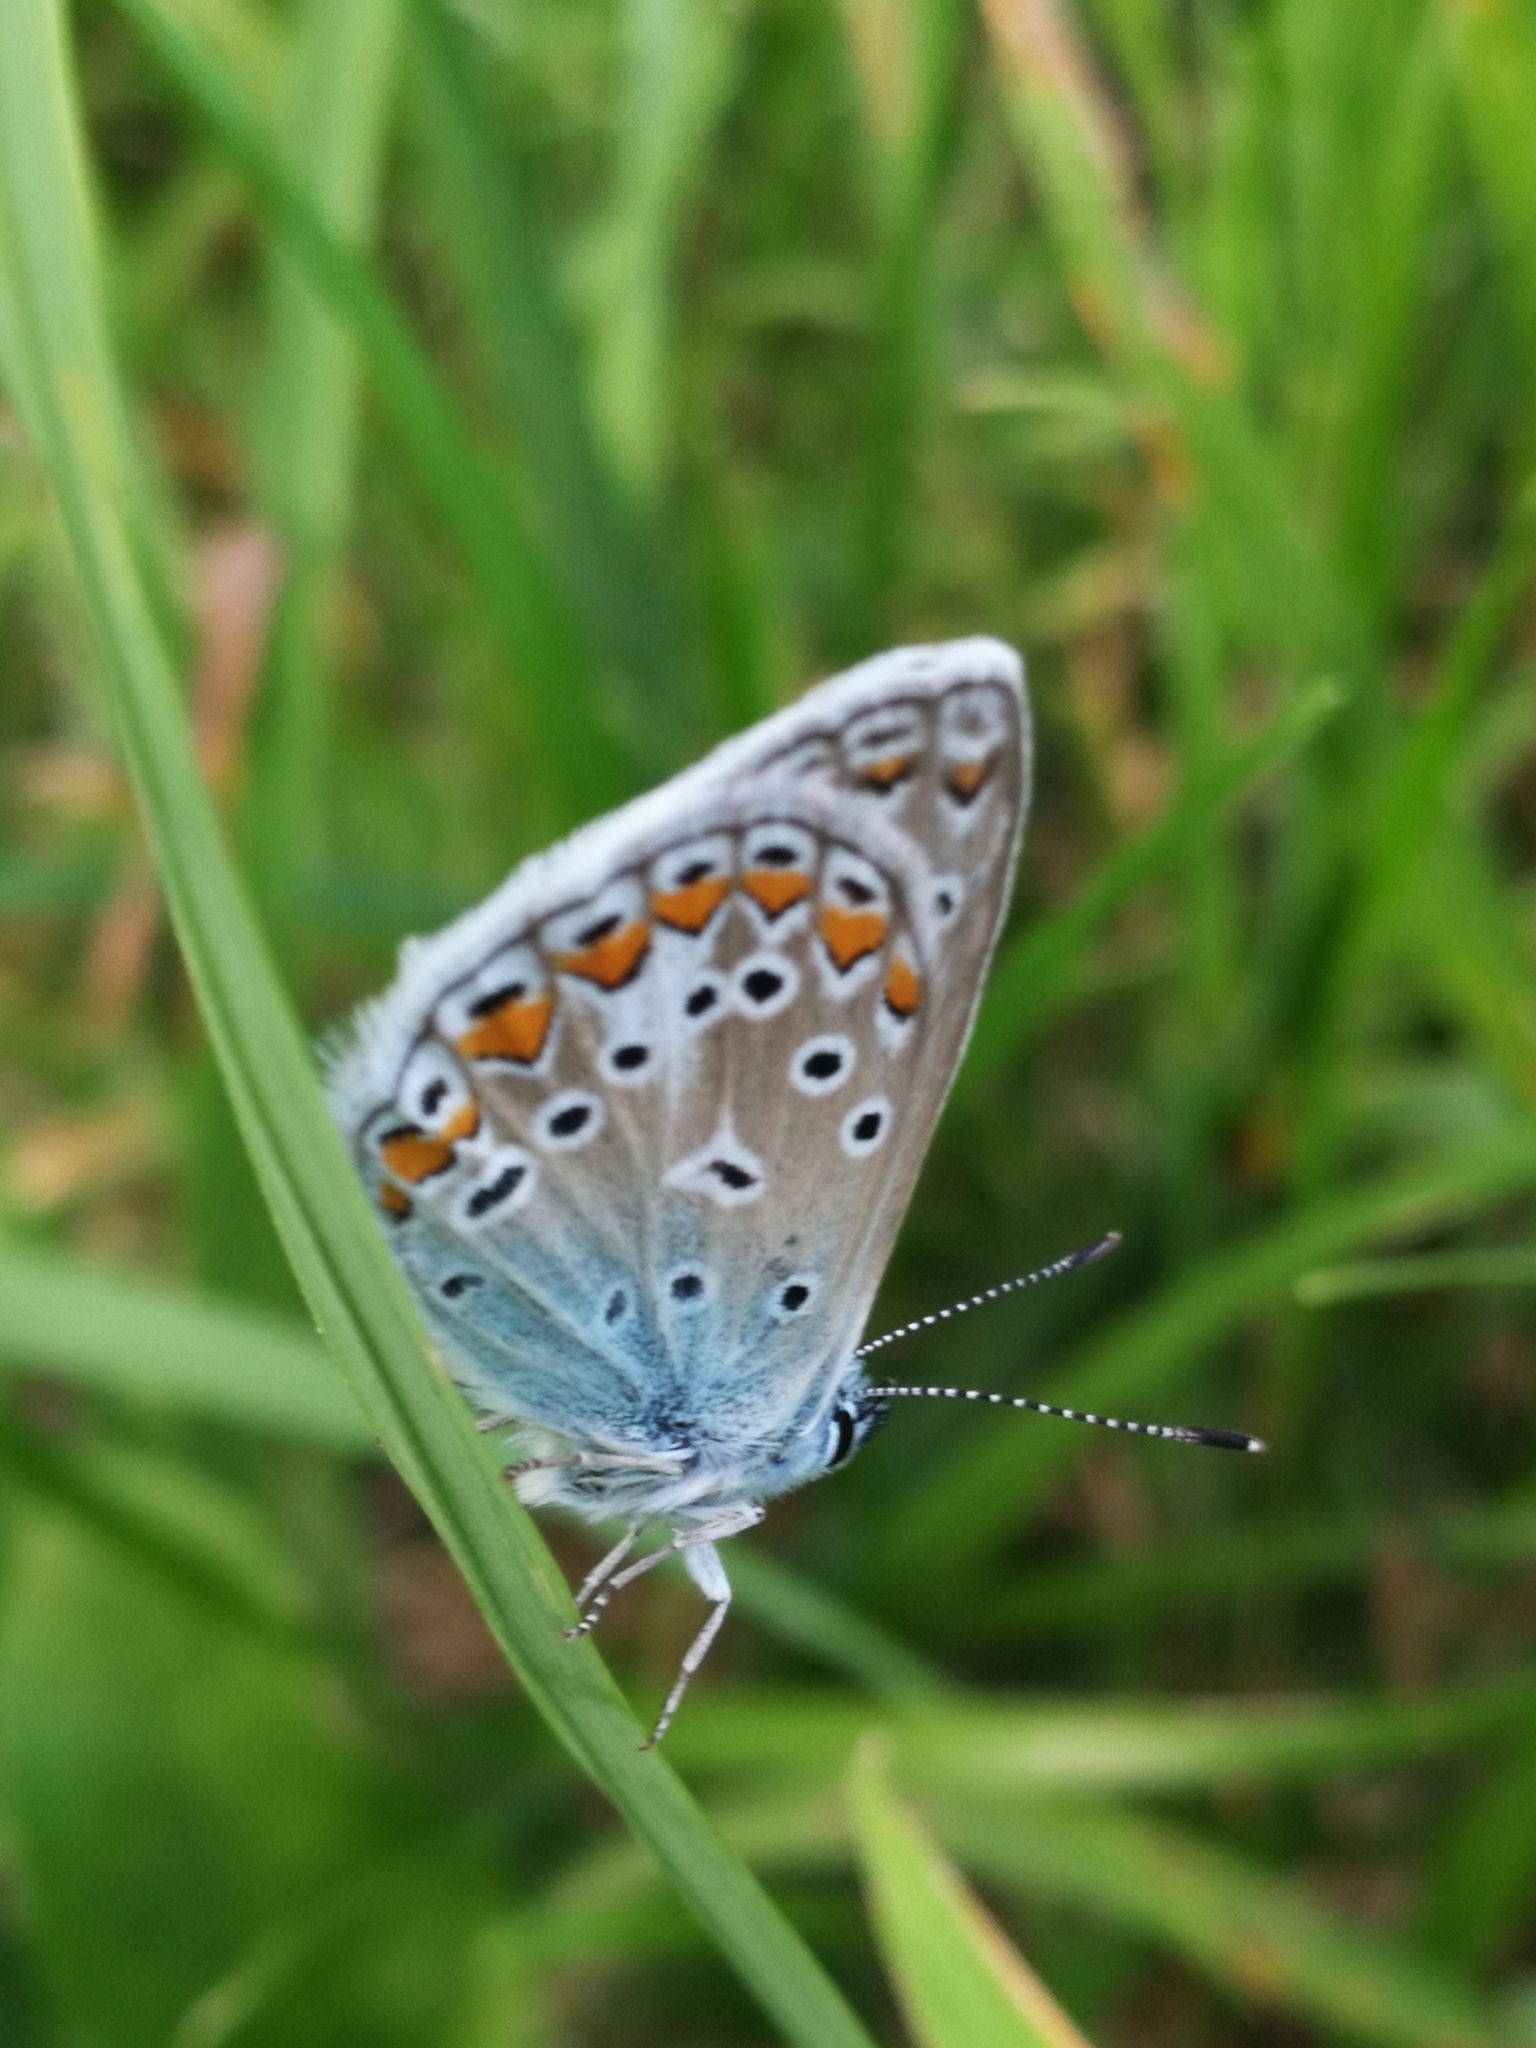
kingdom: Animalia
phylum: Arthropoda
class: Insecta
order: Lepidoptera
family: Lycaenidae
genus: Polyommatus
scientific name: Polyommatus icarus
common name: Common blue
